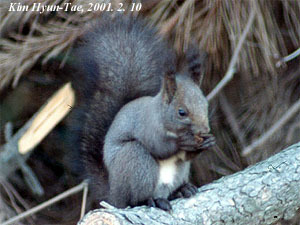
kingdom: Animalia
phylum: Chordata
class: Mammalia
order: Rodentia
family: Sciuridae
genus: Sciurus
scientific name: Sciurus vulgaris
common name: Eurasian red squirrel
